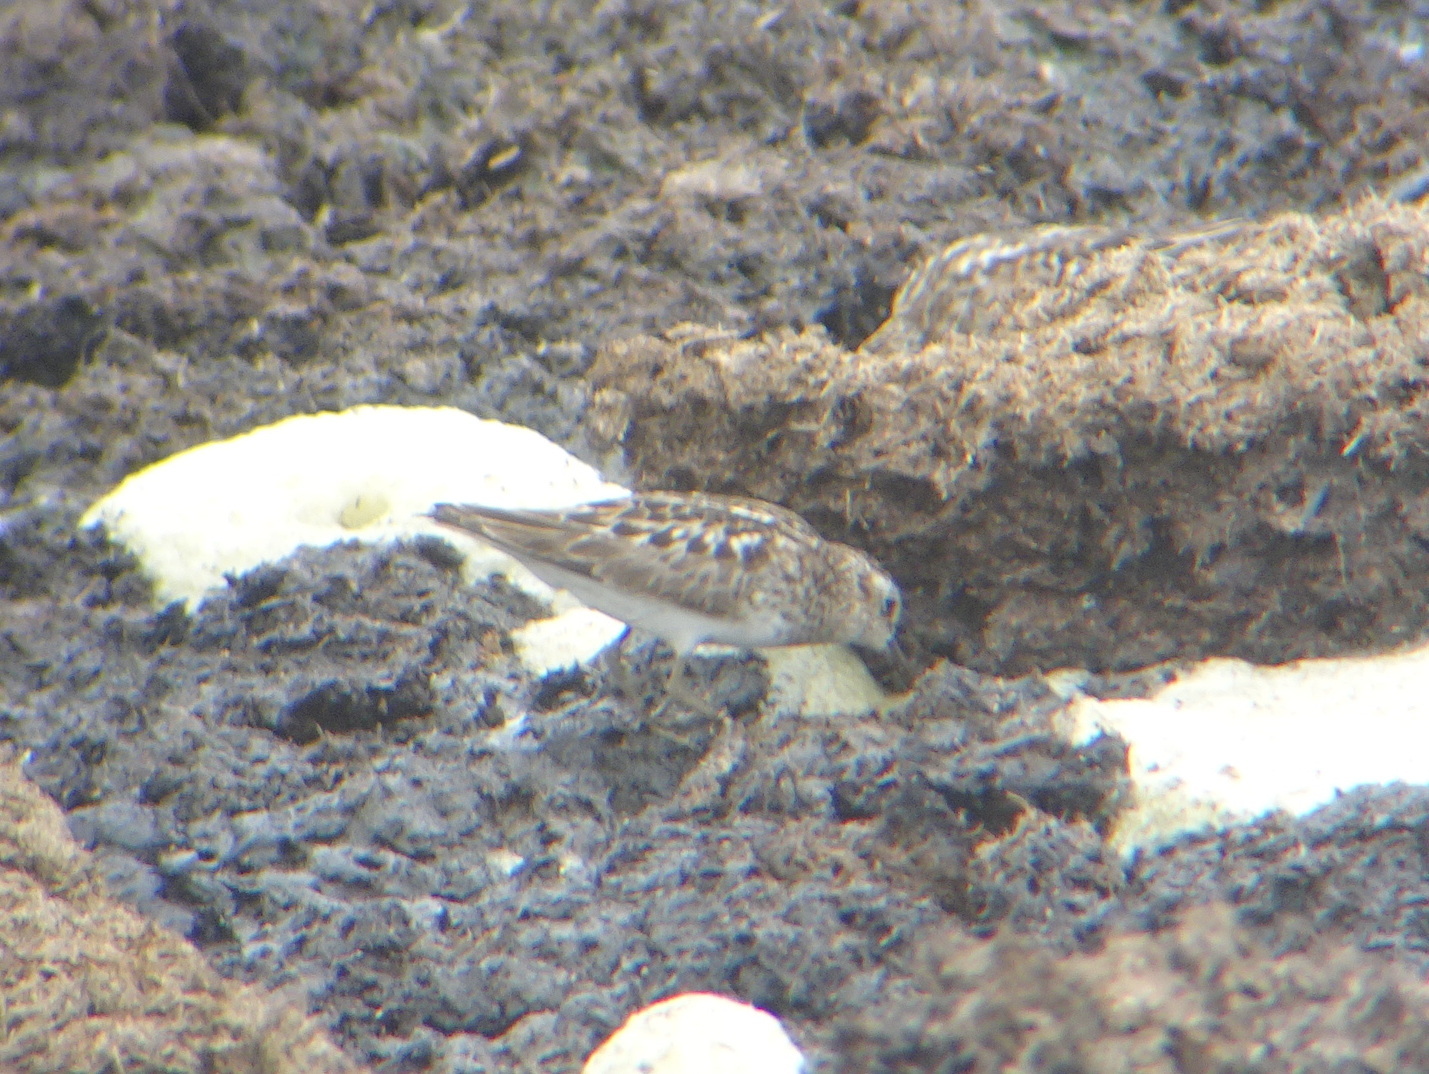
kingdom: Animalia
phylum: Chordata
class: Aves
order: Charadriiformes
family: Scolopacidae
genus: Calidris
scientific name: Calidris minutilla
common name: Least sandpiper
